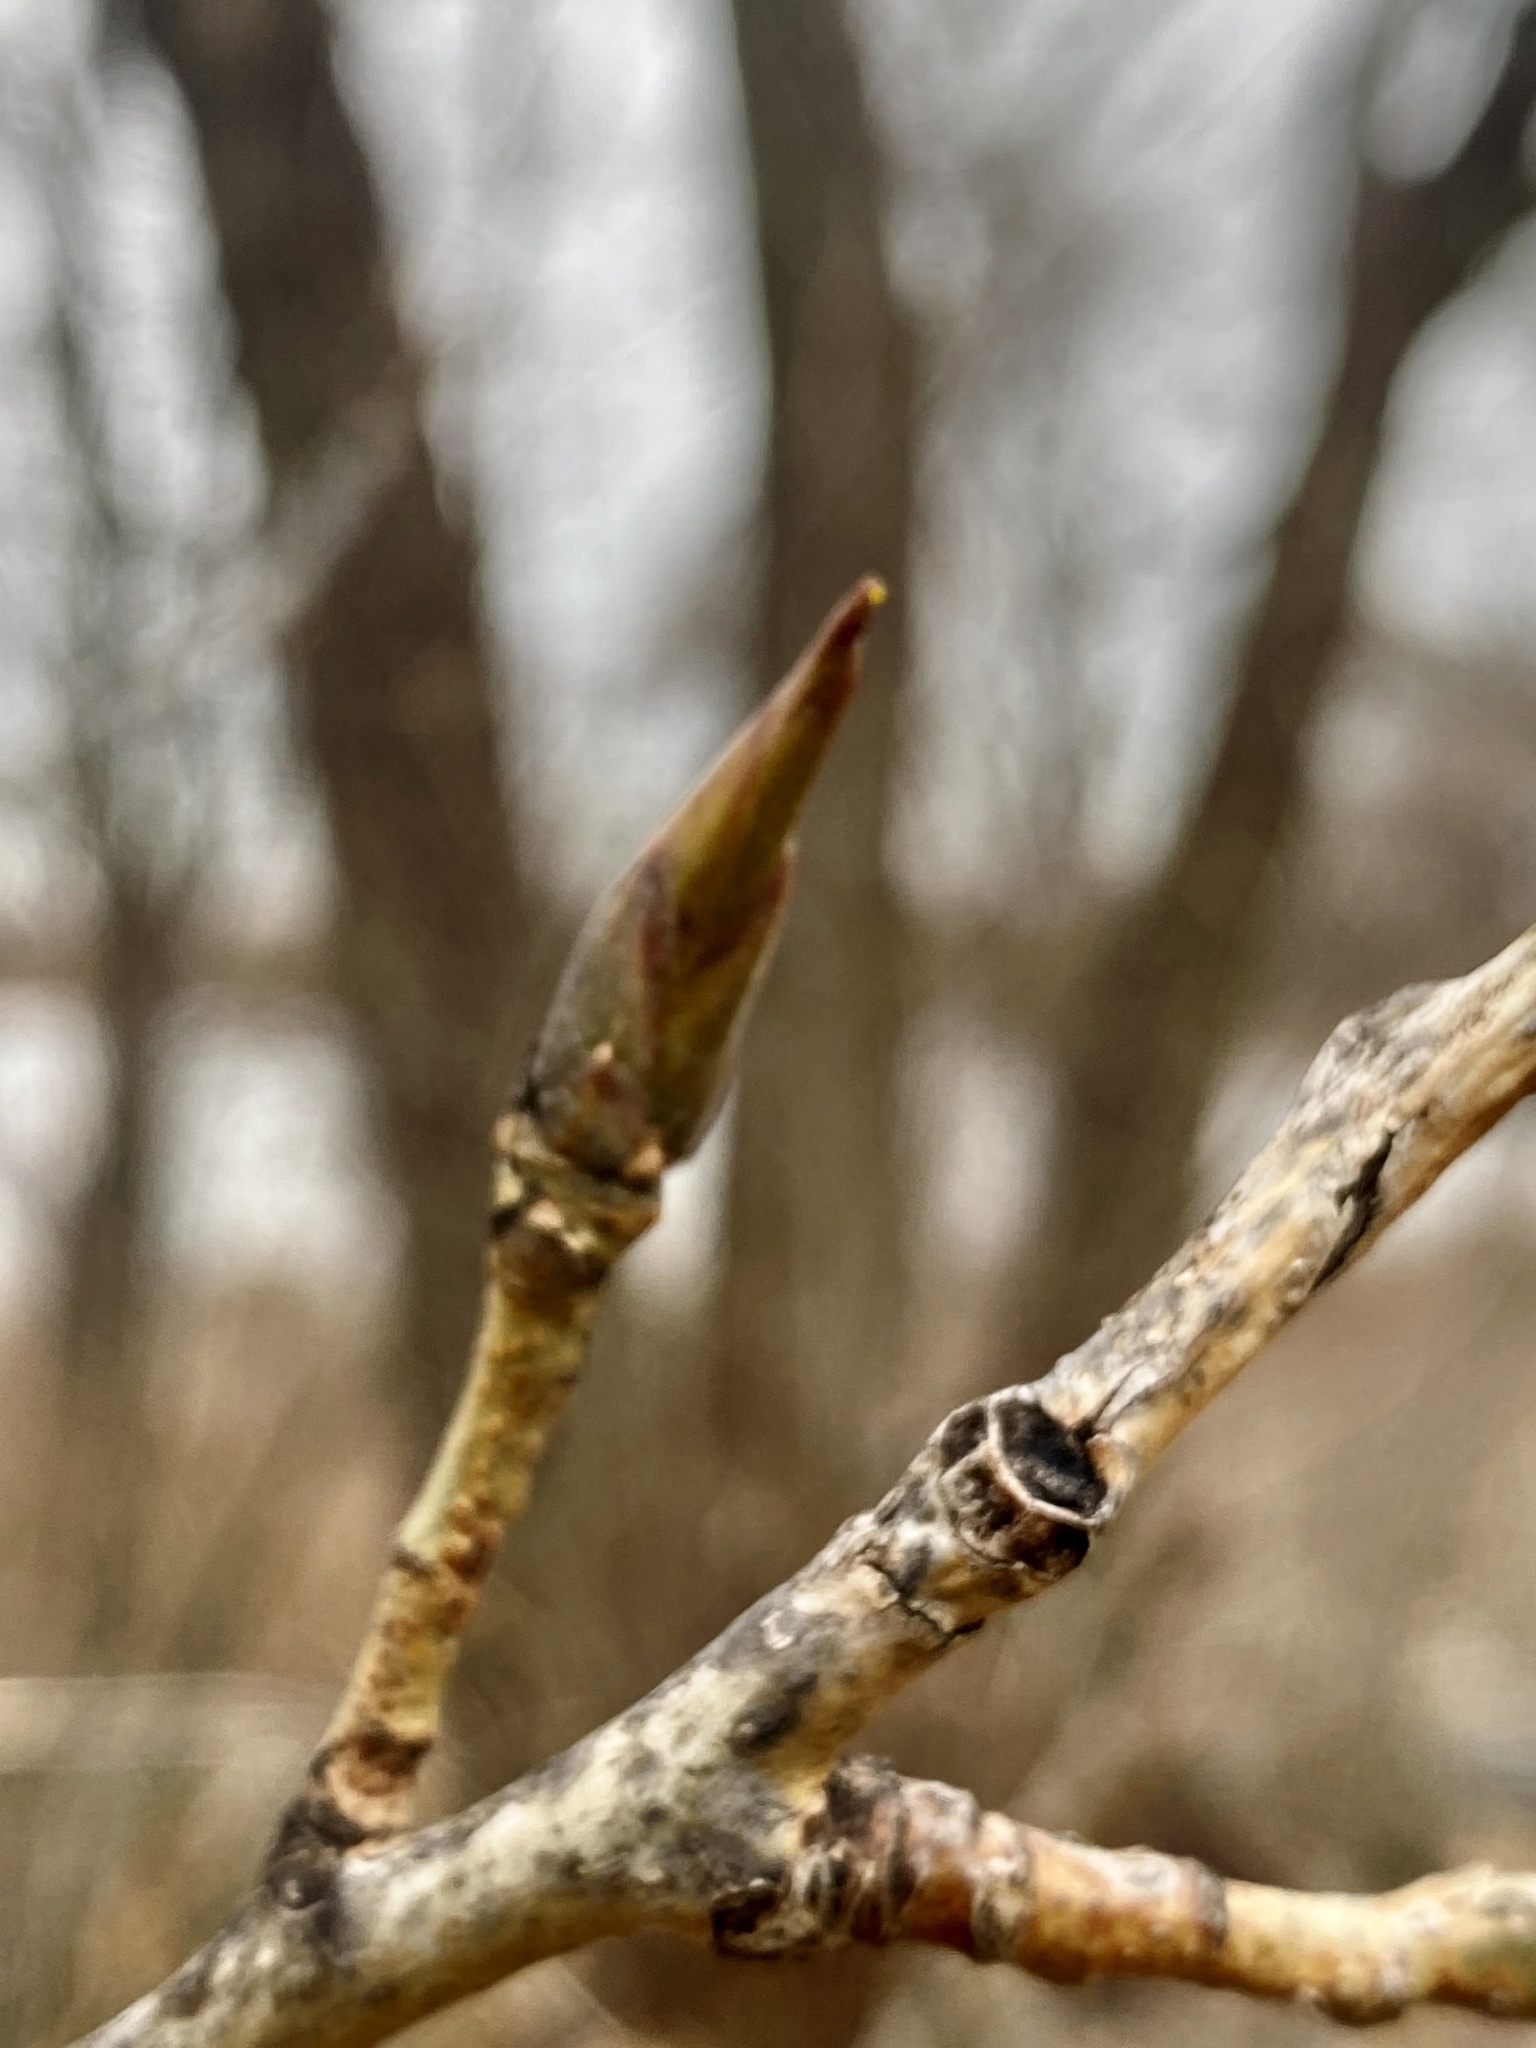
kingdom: Plantae
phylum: Tracheophyta
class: Magnoliopsida
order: Malpighiales
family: Salicaceae
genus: Populus
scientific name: Populus deltoides
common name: Eastern cottonwood
